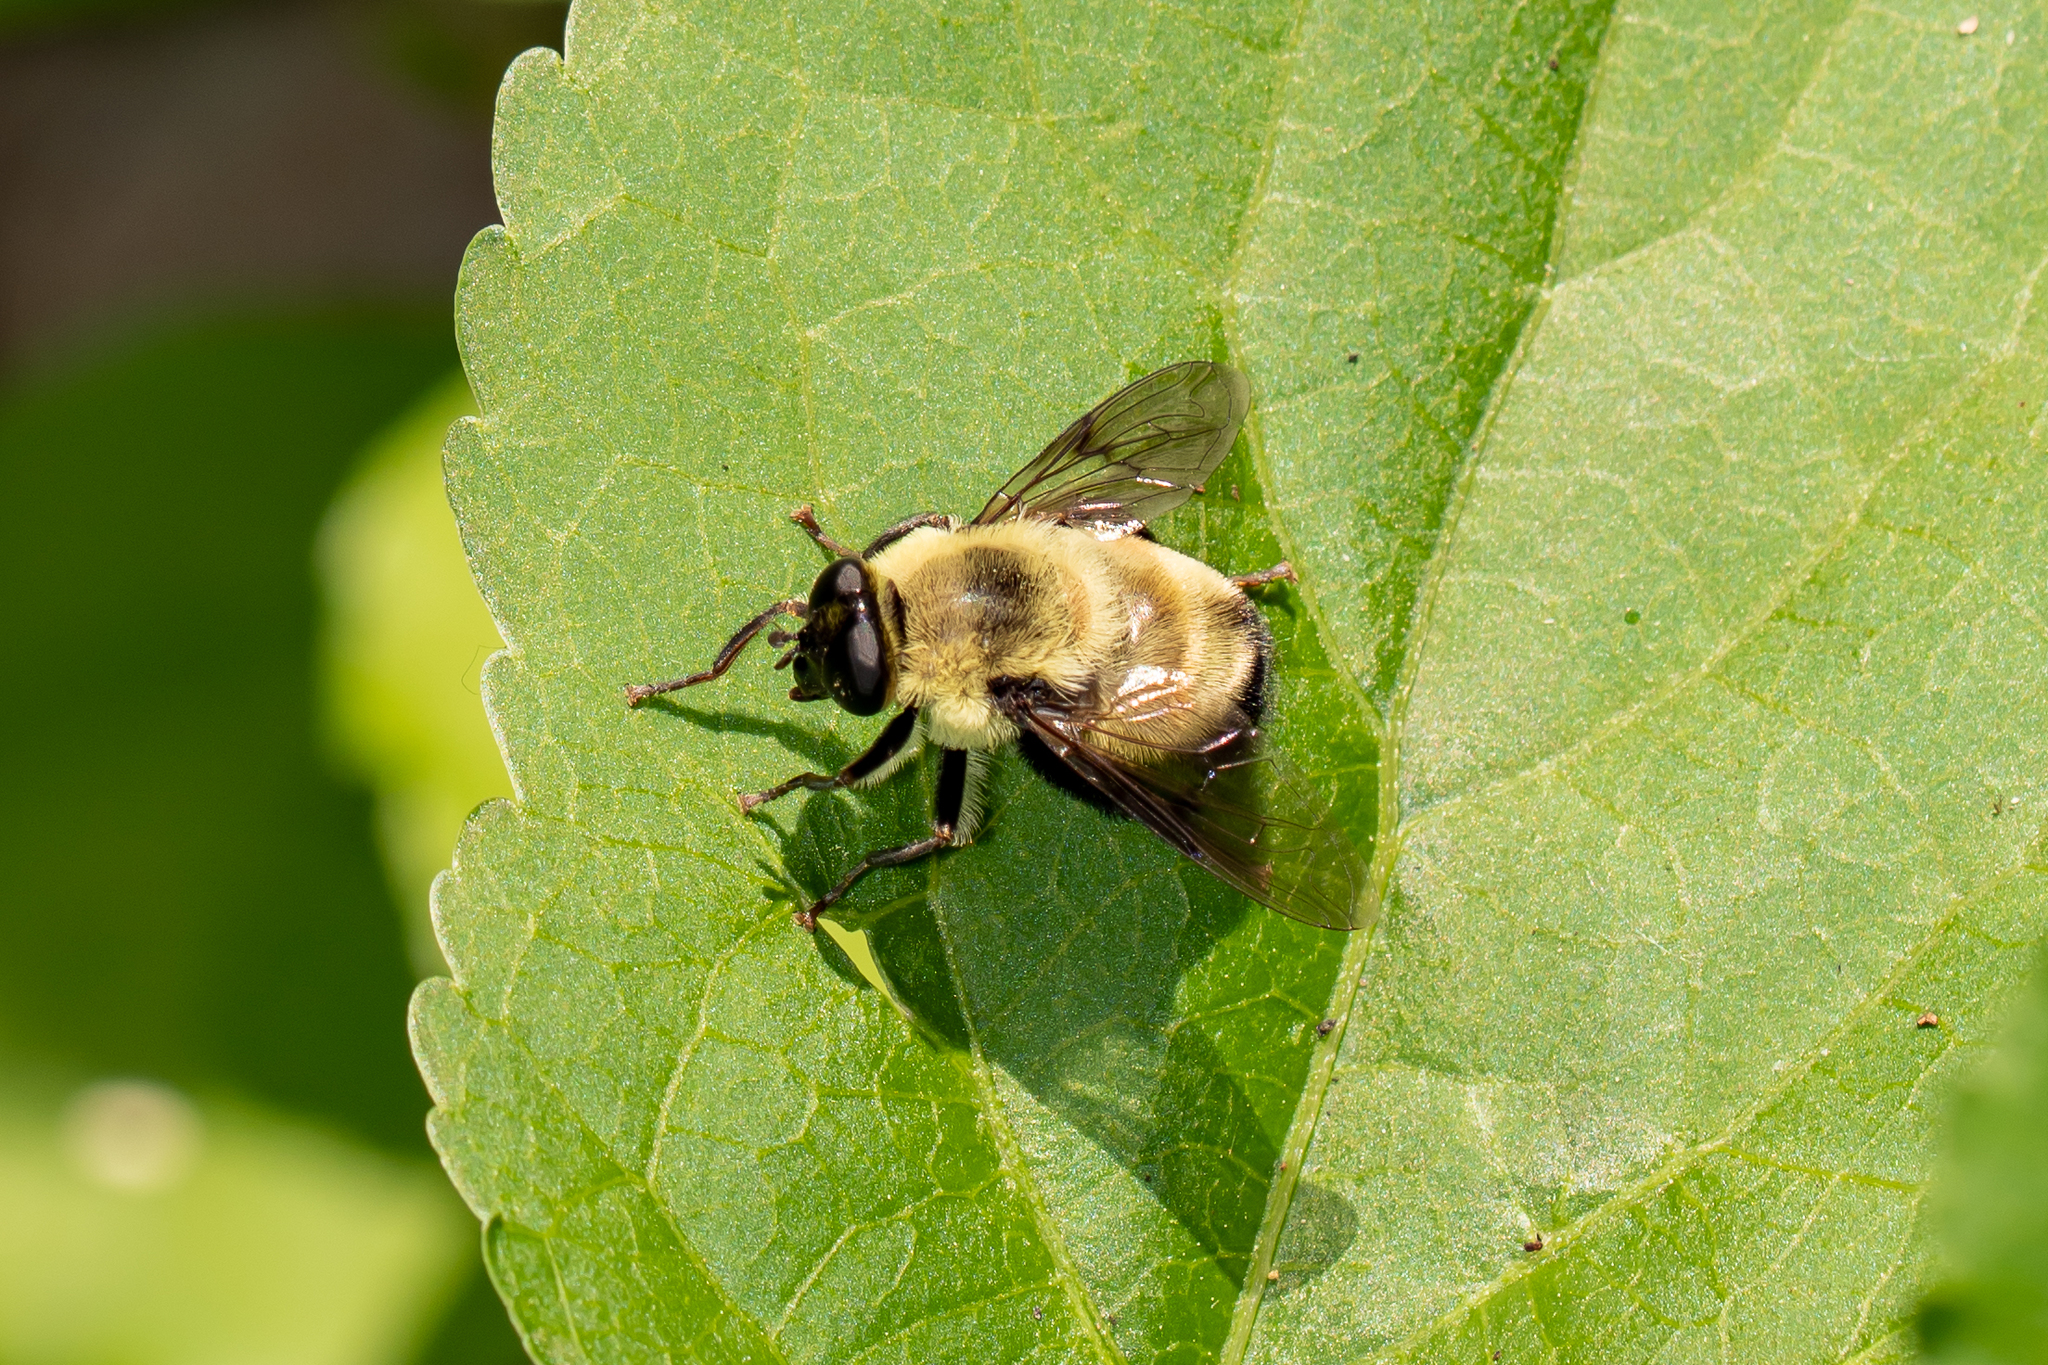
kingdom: Animalia
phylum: Arthropoda
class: Insecta
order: Diptera
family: Syrphidae
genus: Imatisma
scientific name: Imatisma posticata
